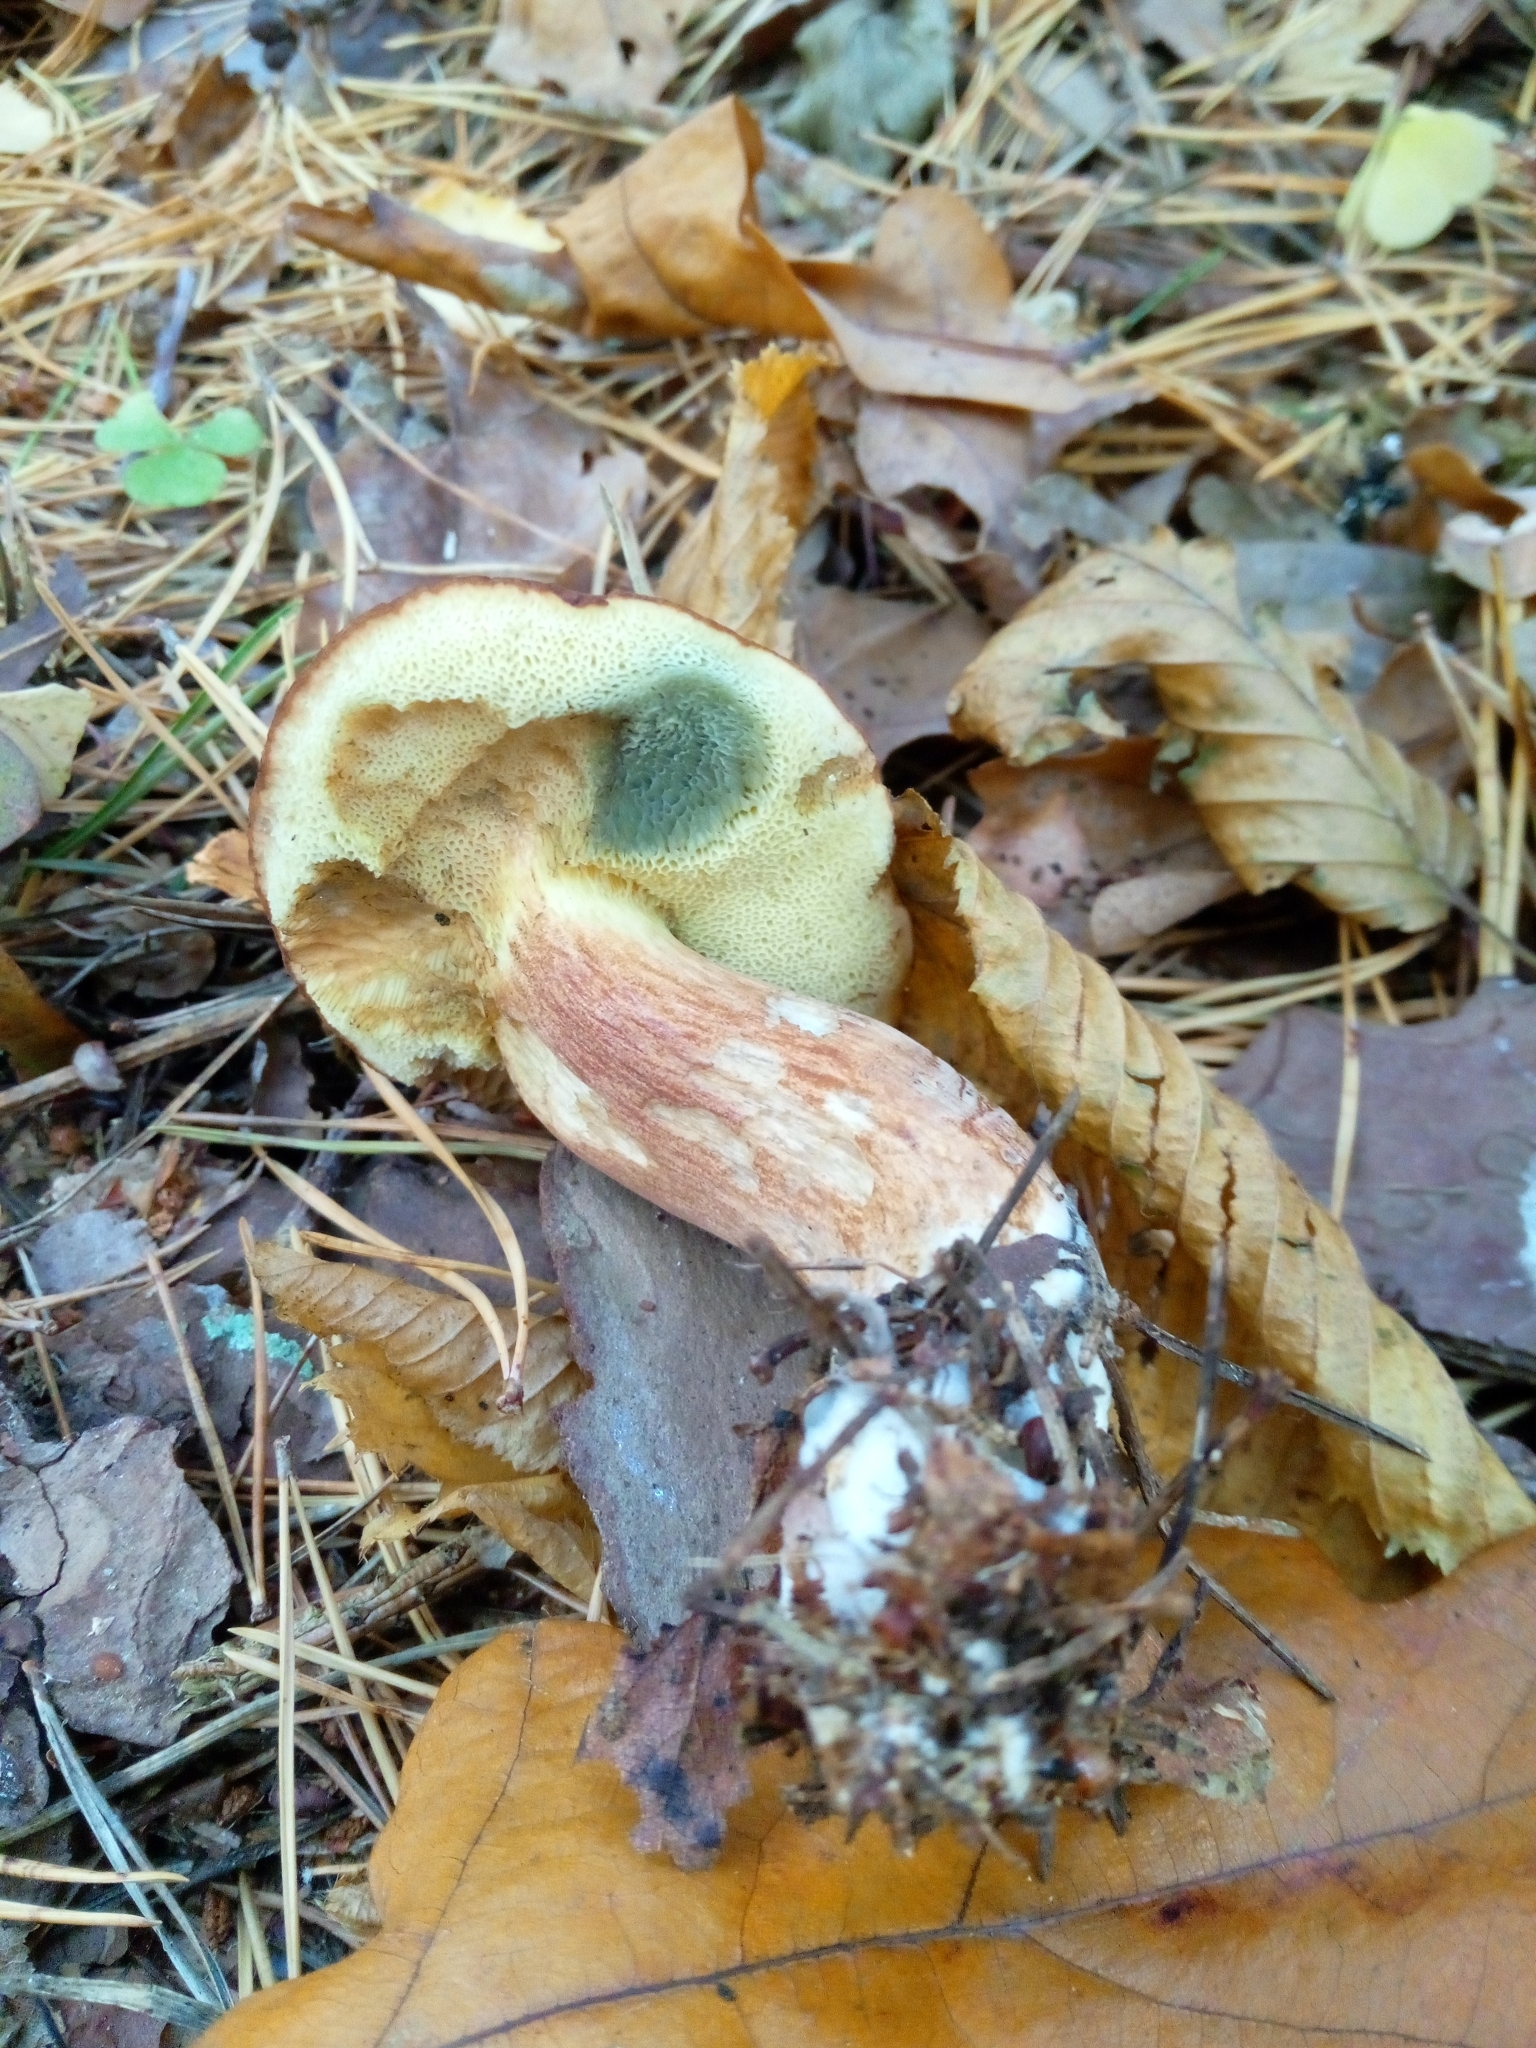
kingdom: Fungi
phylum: Basidiomycota
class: Agaricomycetes
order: Boletales
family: Boletaceae
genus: Imleria
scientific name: Imleria badia
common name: Bay bolete
